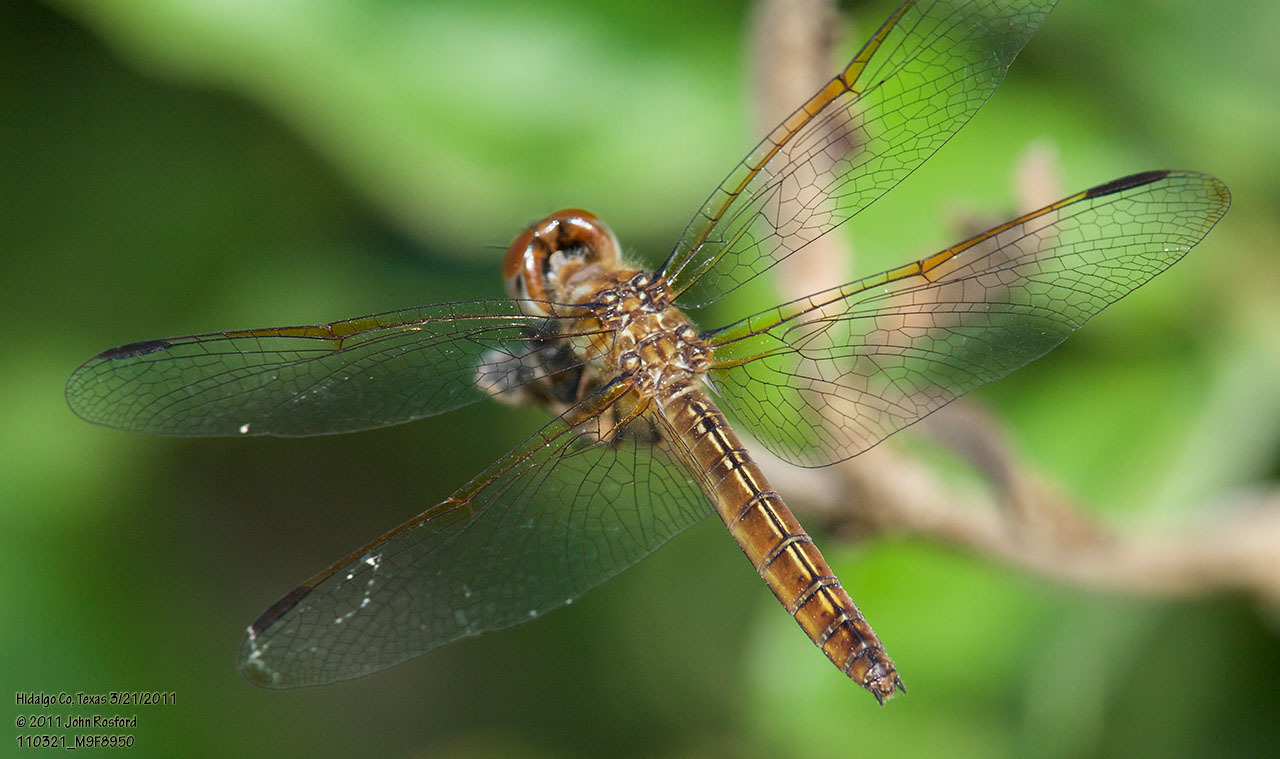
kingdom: Animalia
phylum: Arthropoda
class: Insecta
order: Odonata
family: Libellulidae
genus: Perithemis
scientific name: Perithemis domitia
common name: Slough amberwing
